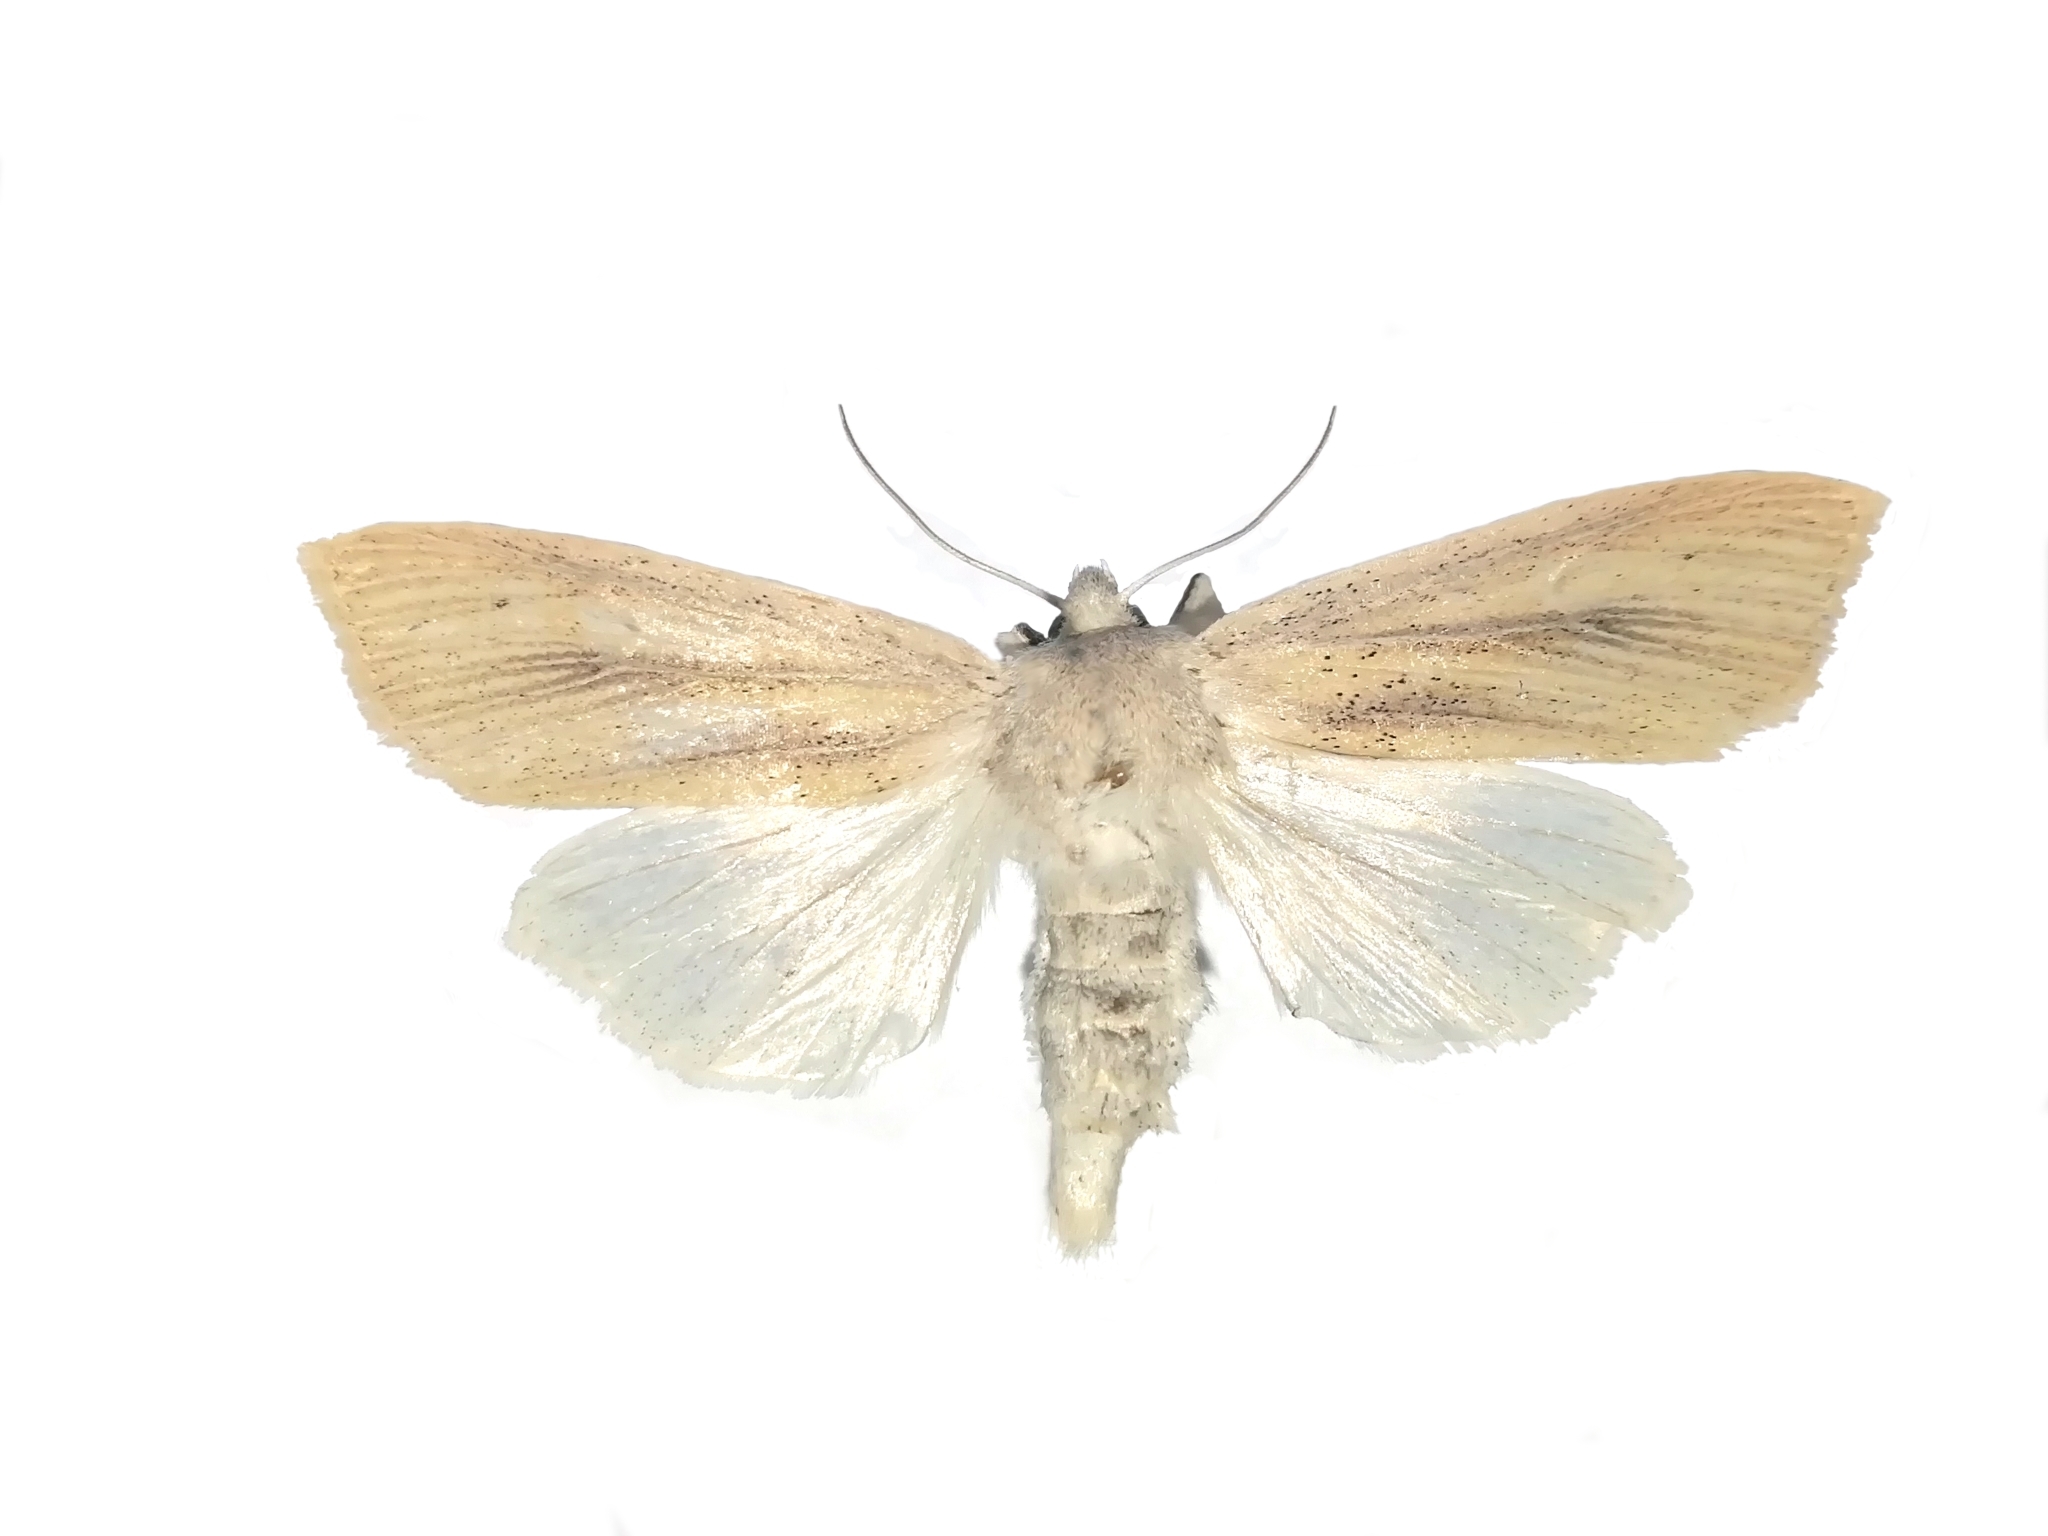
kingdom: Animalia
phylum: Arthropoda
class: Insecta
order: Lepidoptera
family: Noctuidae
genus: Rhizedra
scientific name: Rhizedra lutosa
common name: Large wainscot
